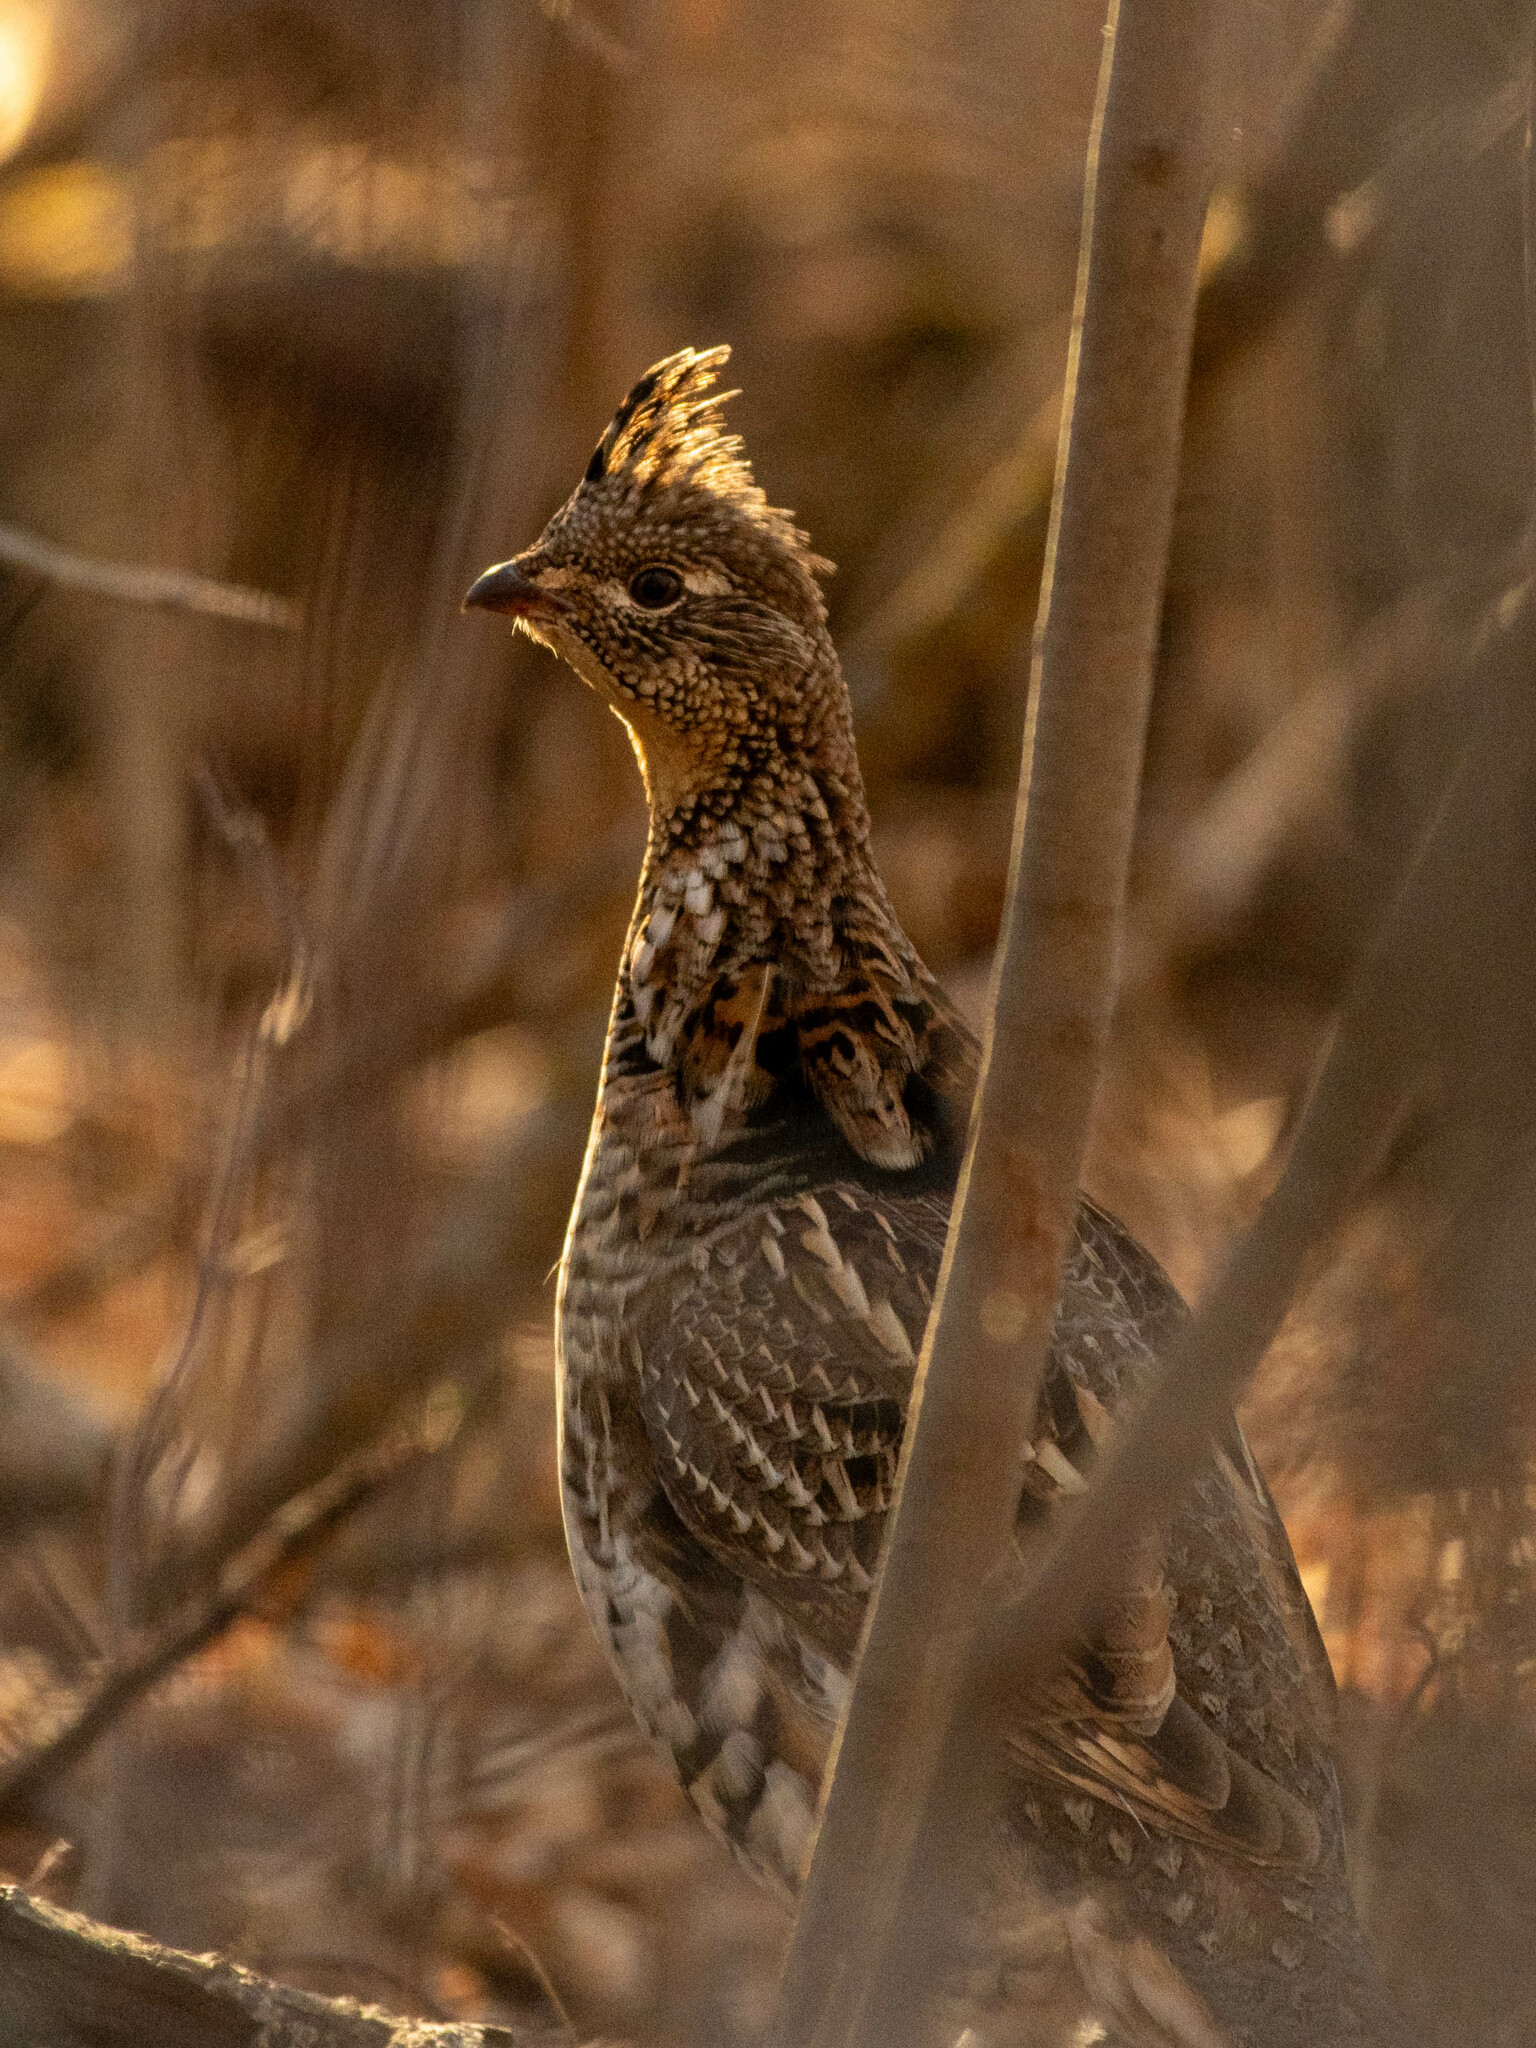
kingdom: Animalia
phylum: Chordata
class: Aves
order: Galliformes
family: Phasianidae
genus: Bonasa
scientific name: Bonasa umbellus
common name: Ruffed grouse
